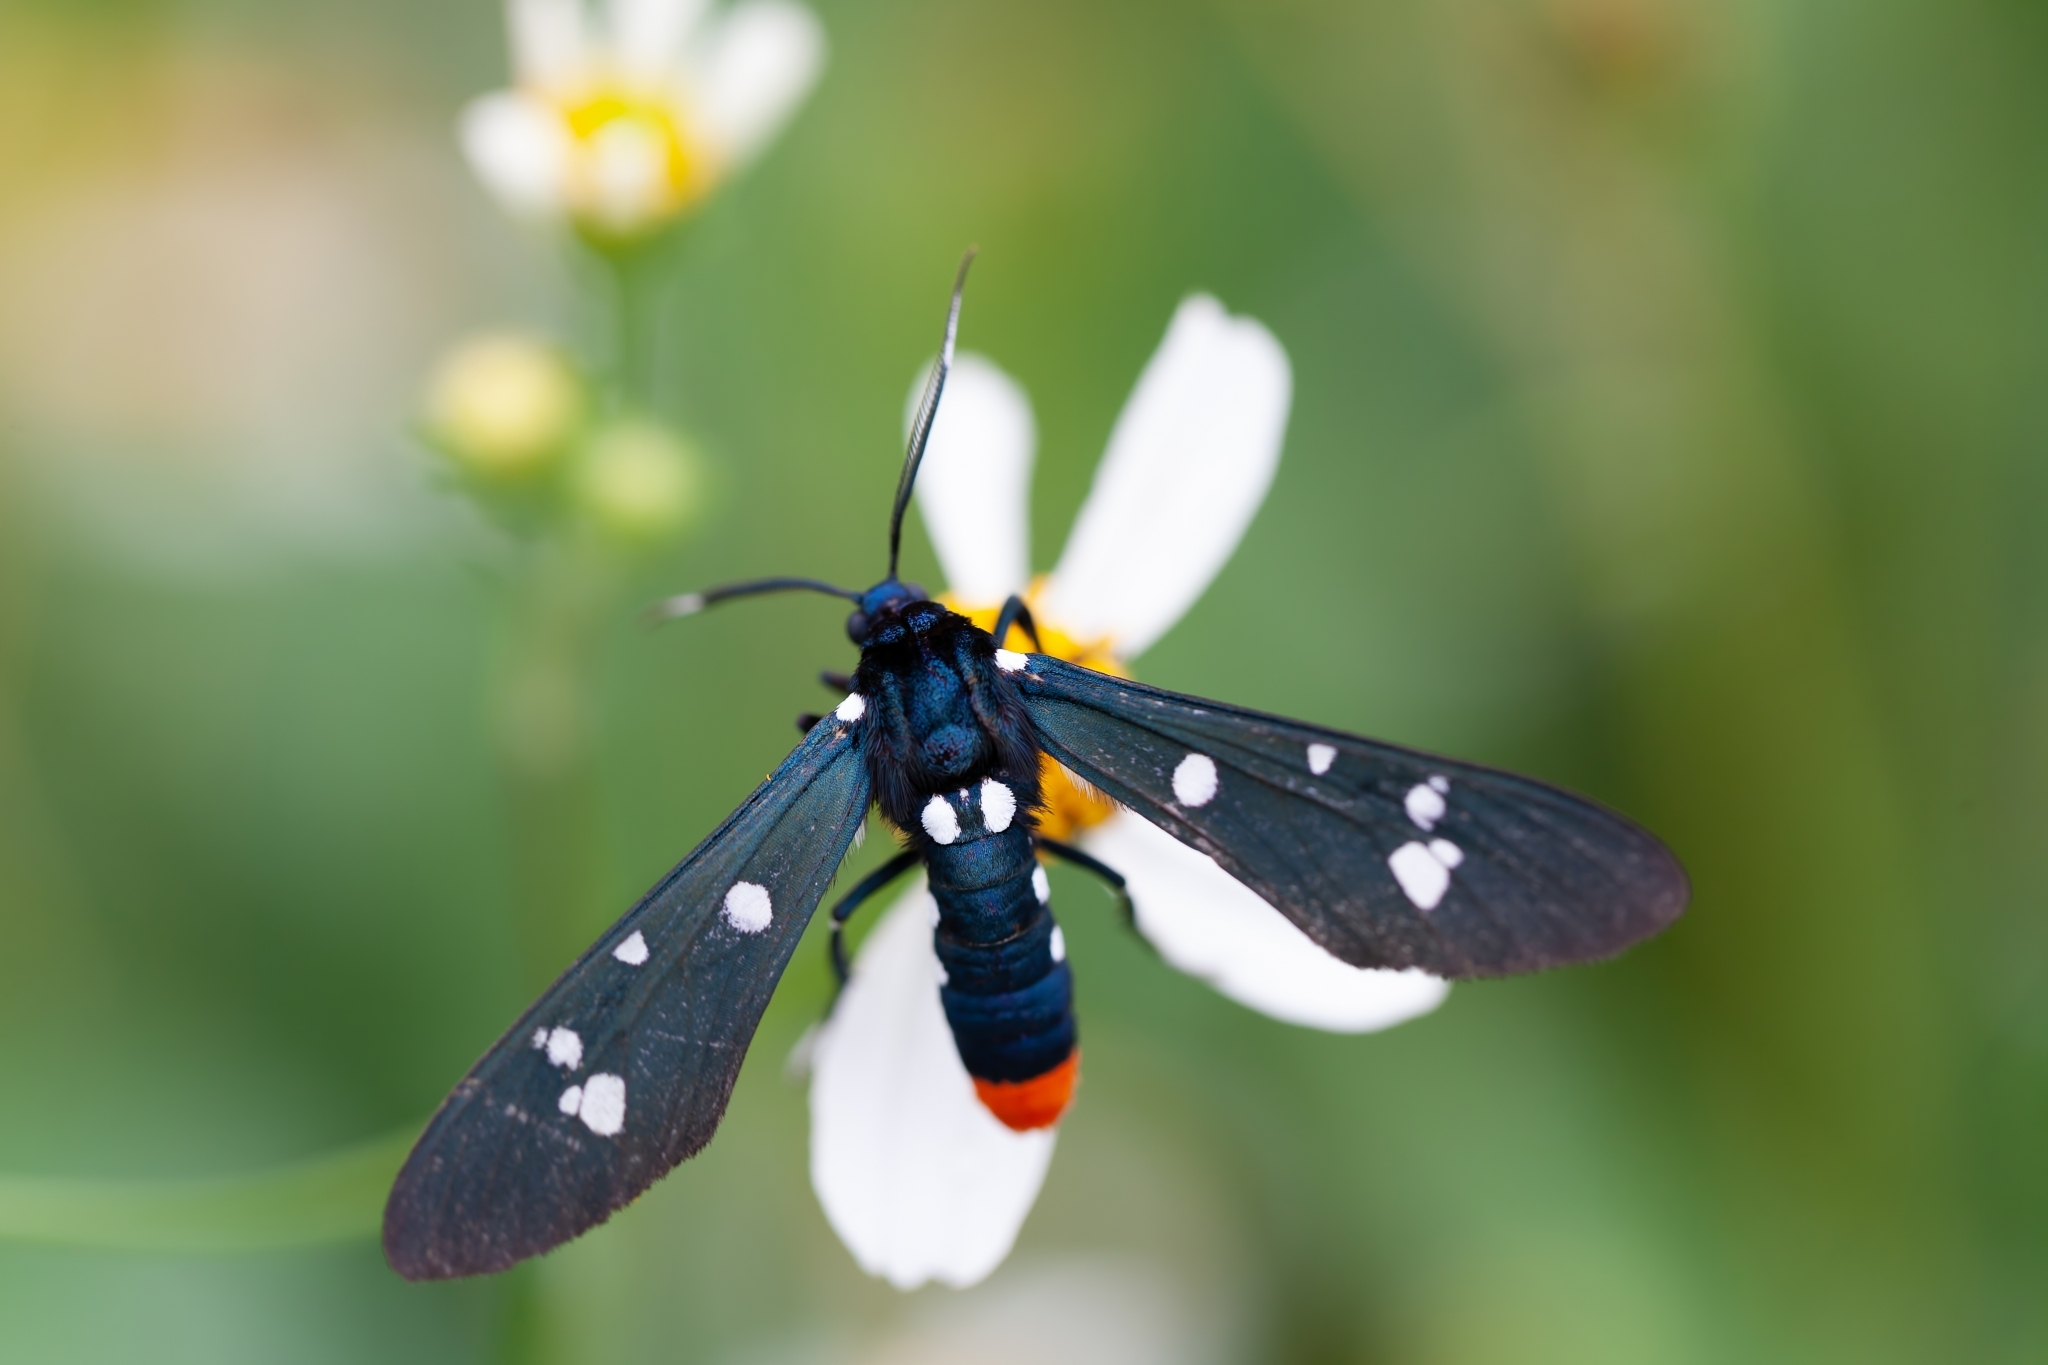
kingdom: Animalia
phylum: Arthropoda
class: Insecta
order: Lepidoptera
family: Erebidae
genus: Syntomeida
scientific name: Syntomeida epilais
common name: Polka-dot wasp moth
